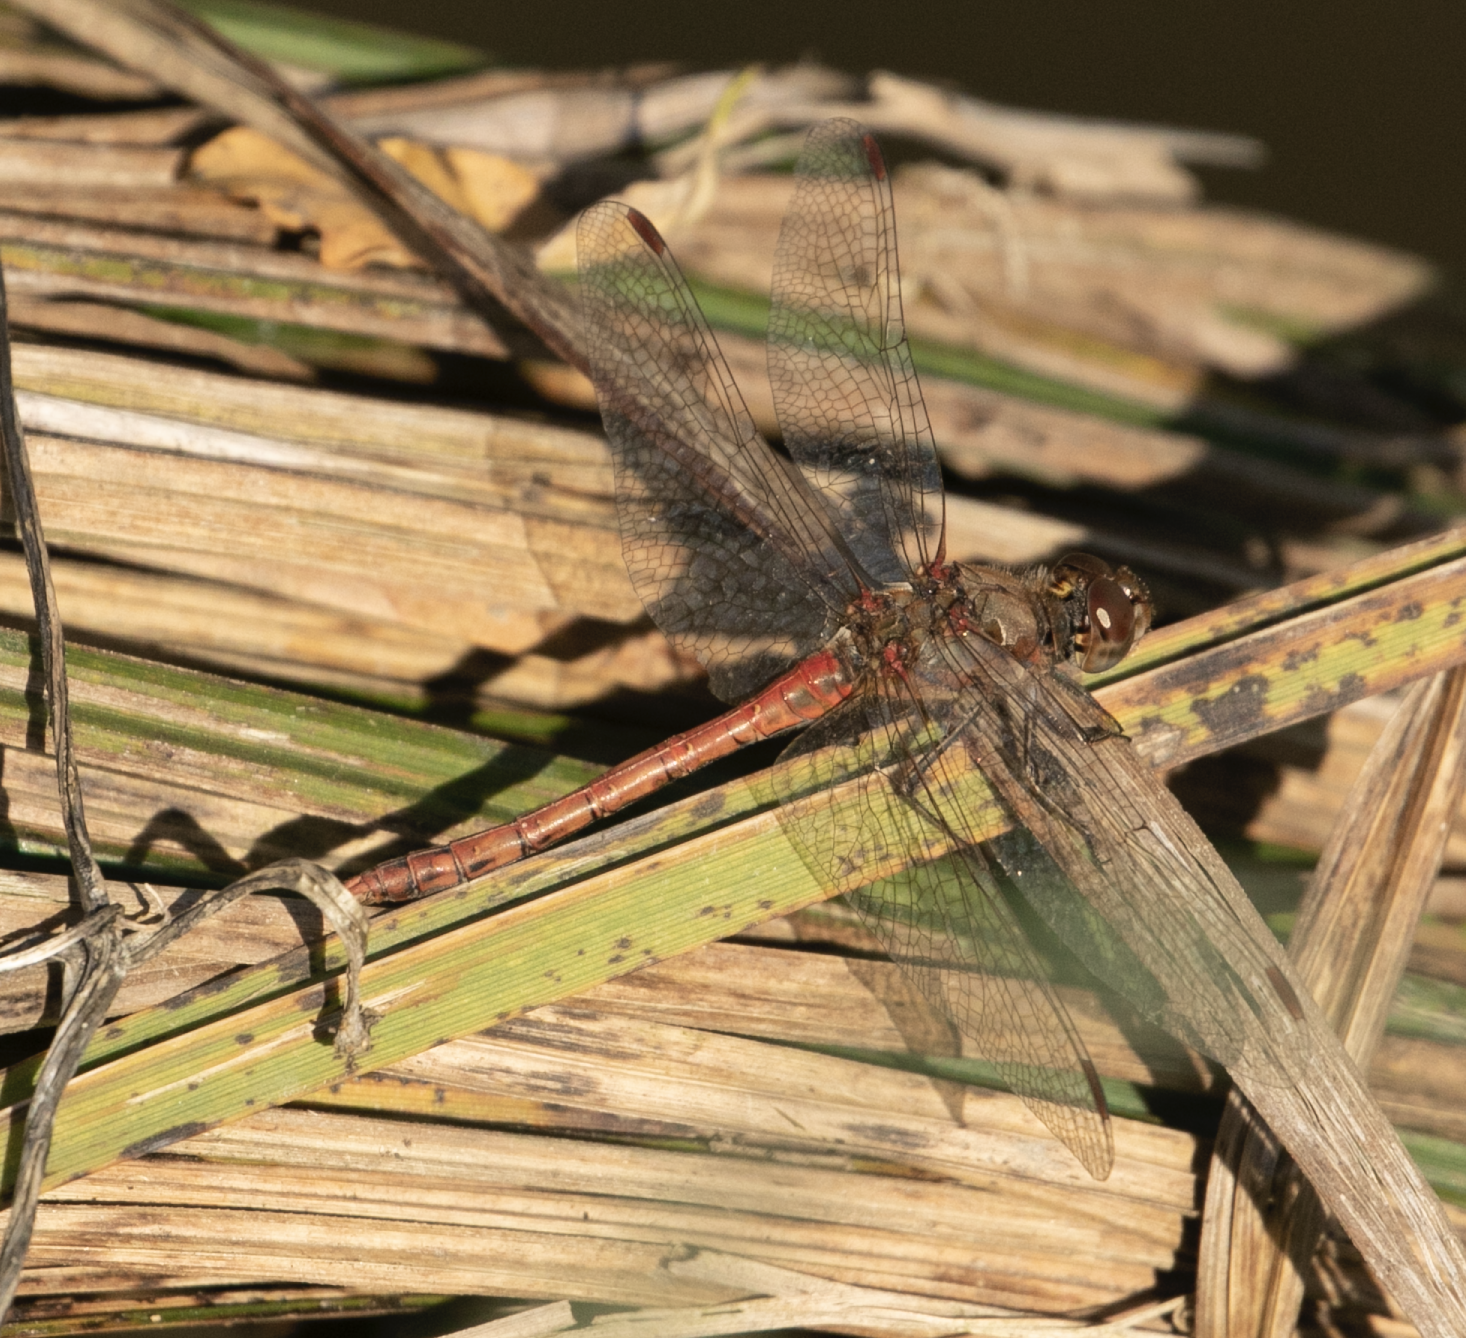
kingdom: Animalia
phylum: Arthropoda
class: Insecta
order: Odonata
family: Libellulidae
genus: Sympetrum
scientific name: Sympetrum striolatum
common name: Common darter
